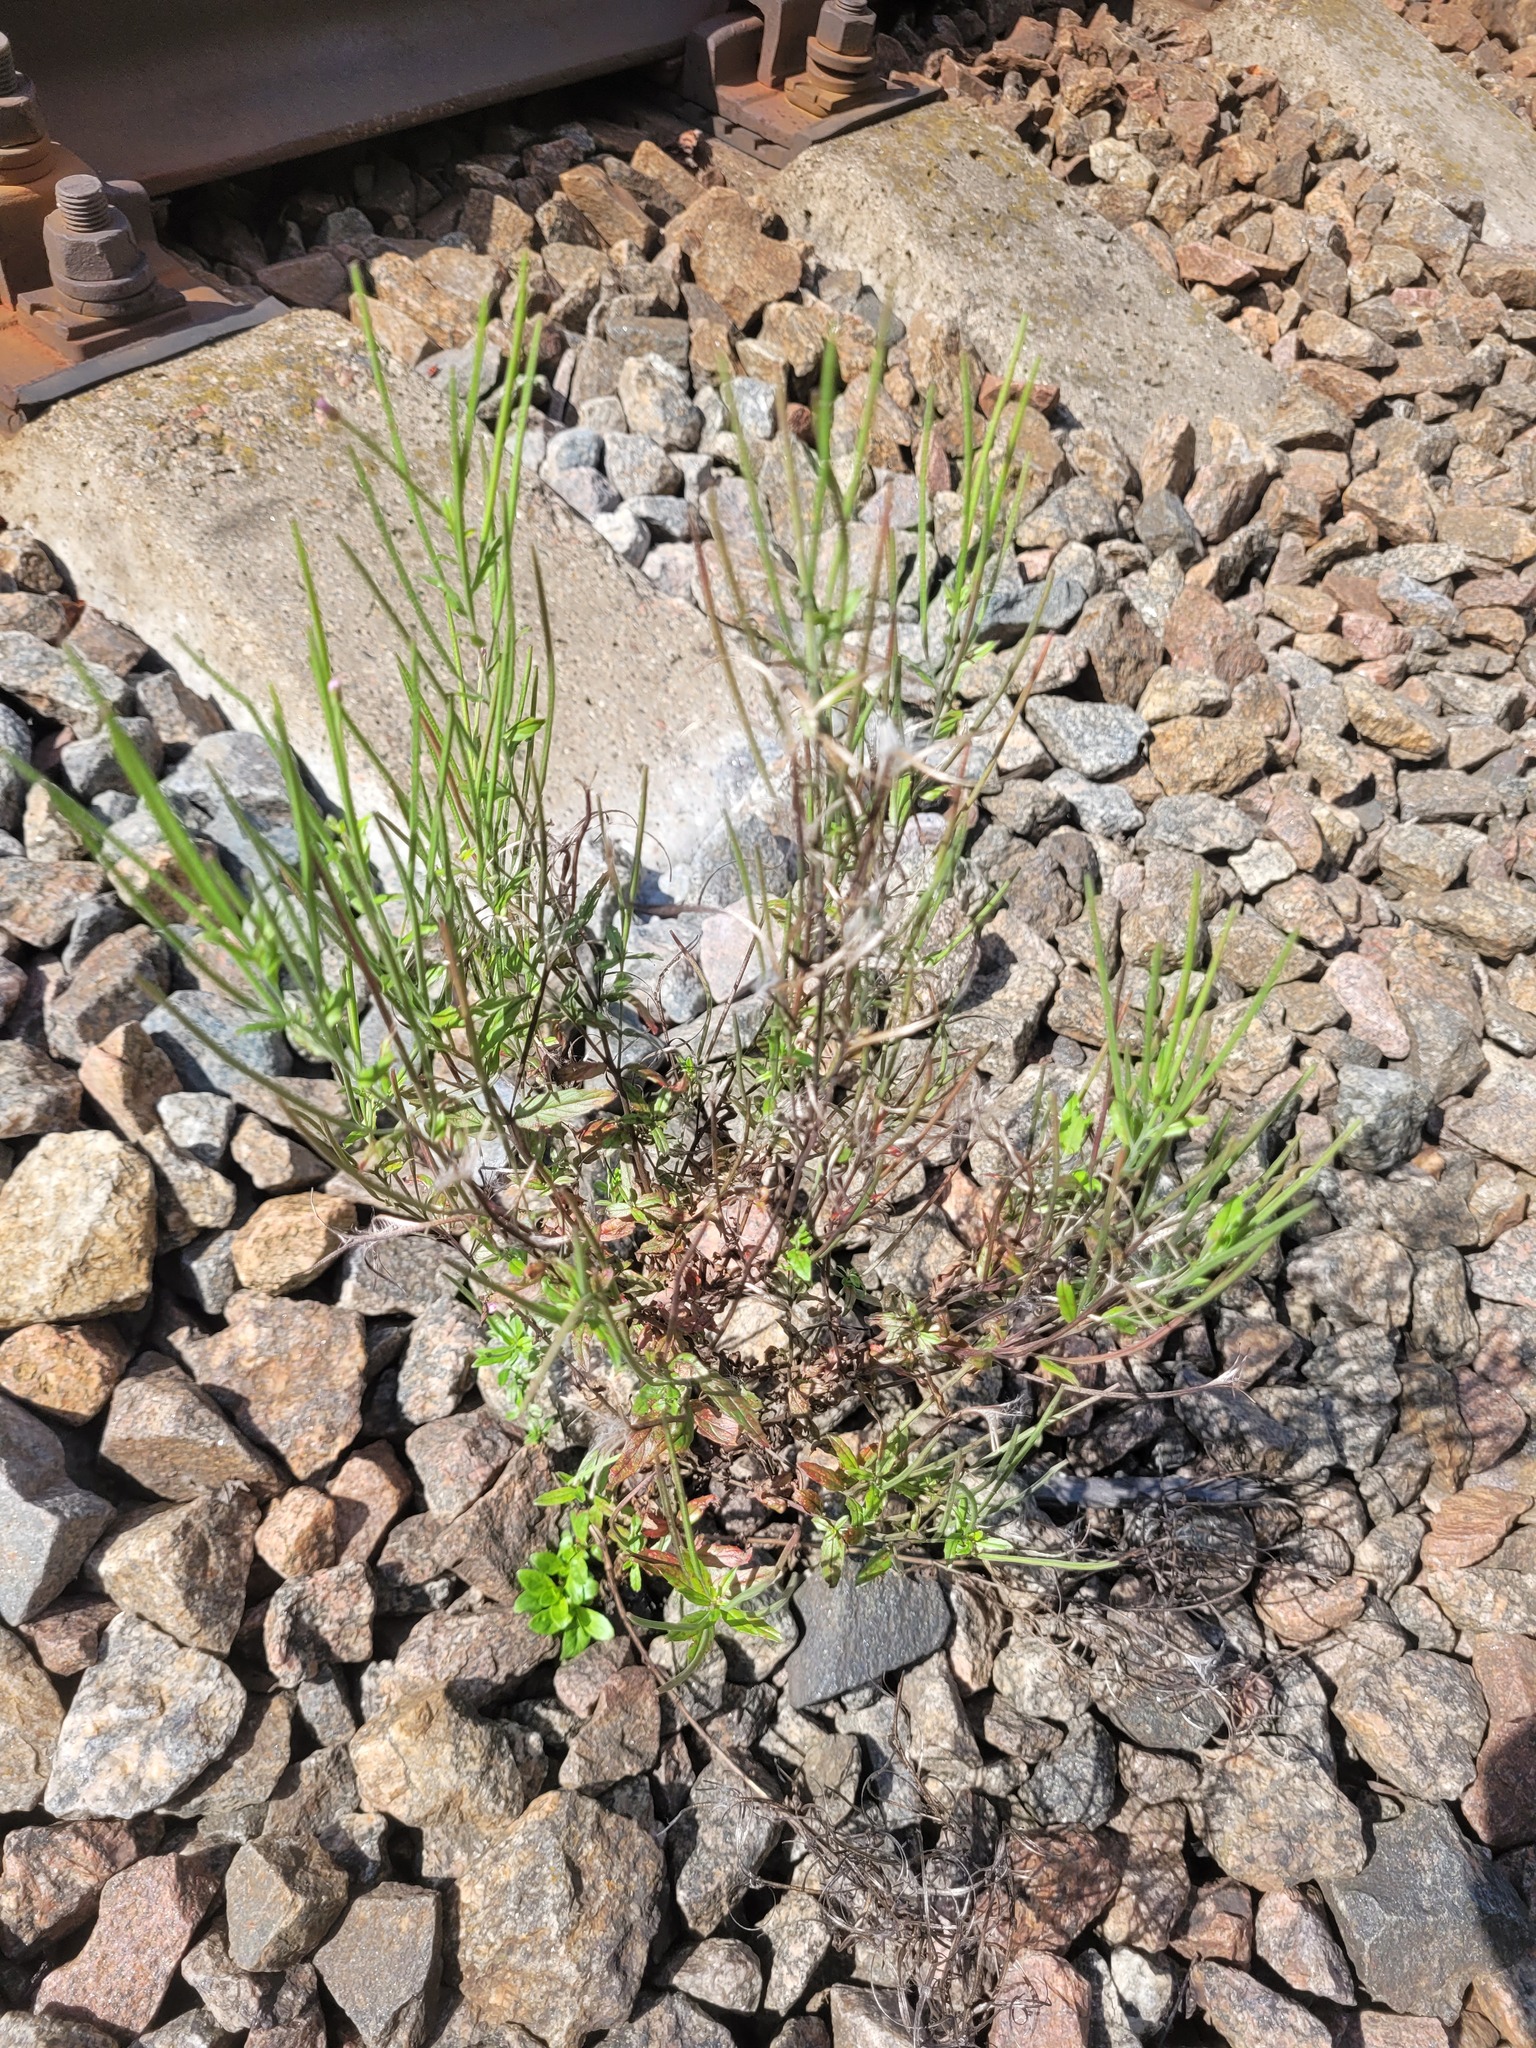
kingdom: Plantae
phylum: Tracheophyta
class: Magnoliopsida
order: Myrtales
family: Onagraceae
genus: Epilobium
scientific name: Epilobium lamyi
